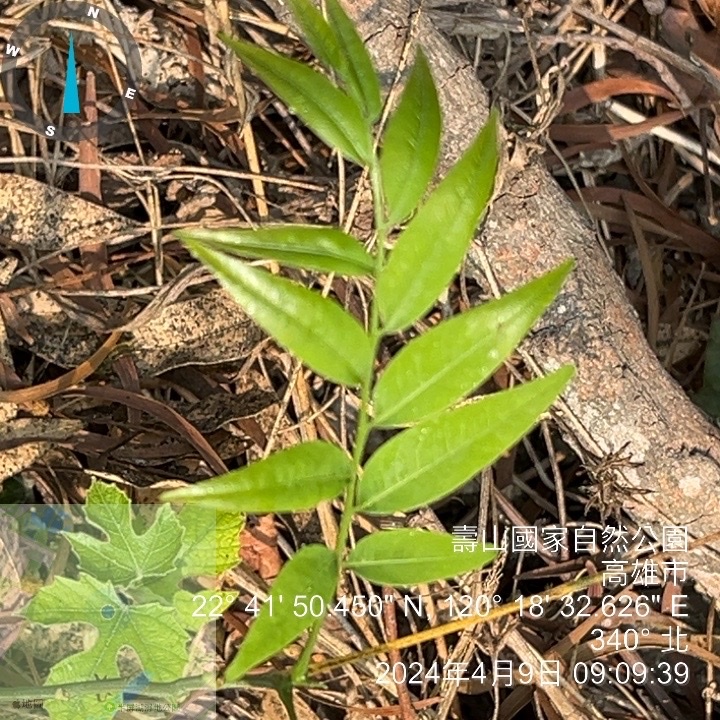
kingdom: Plantae
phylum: Tracheophyta
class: Magnoliopsida
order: Sapindales
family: Sapindaceae
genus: Sapindus
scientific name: Sapindus mukorossi
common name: Chinese soapberry
